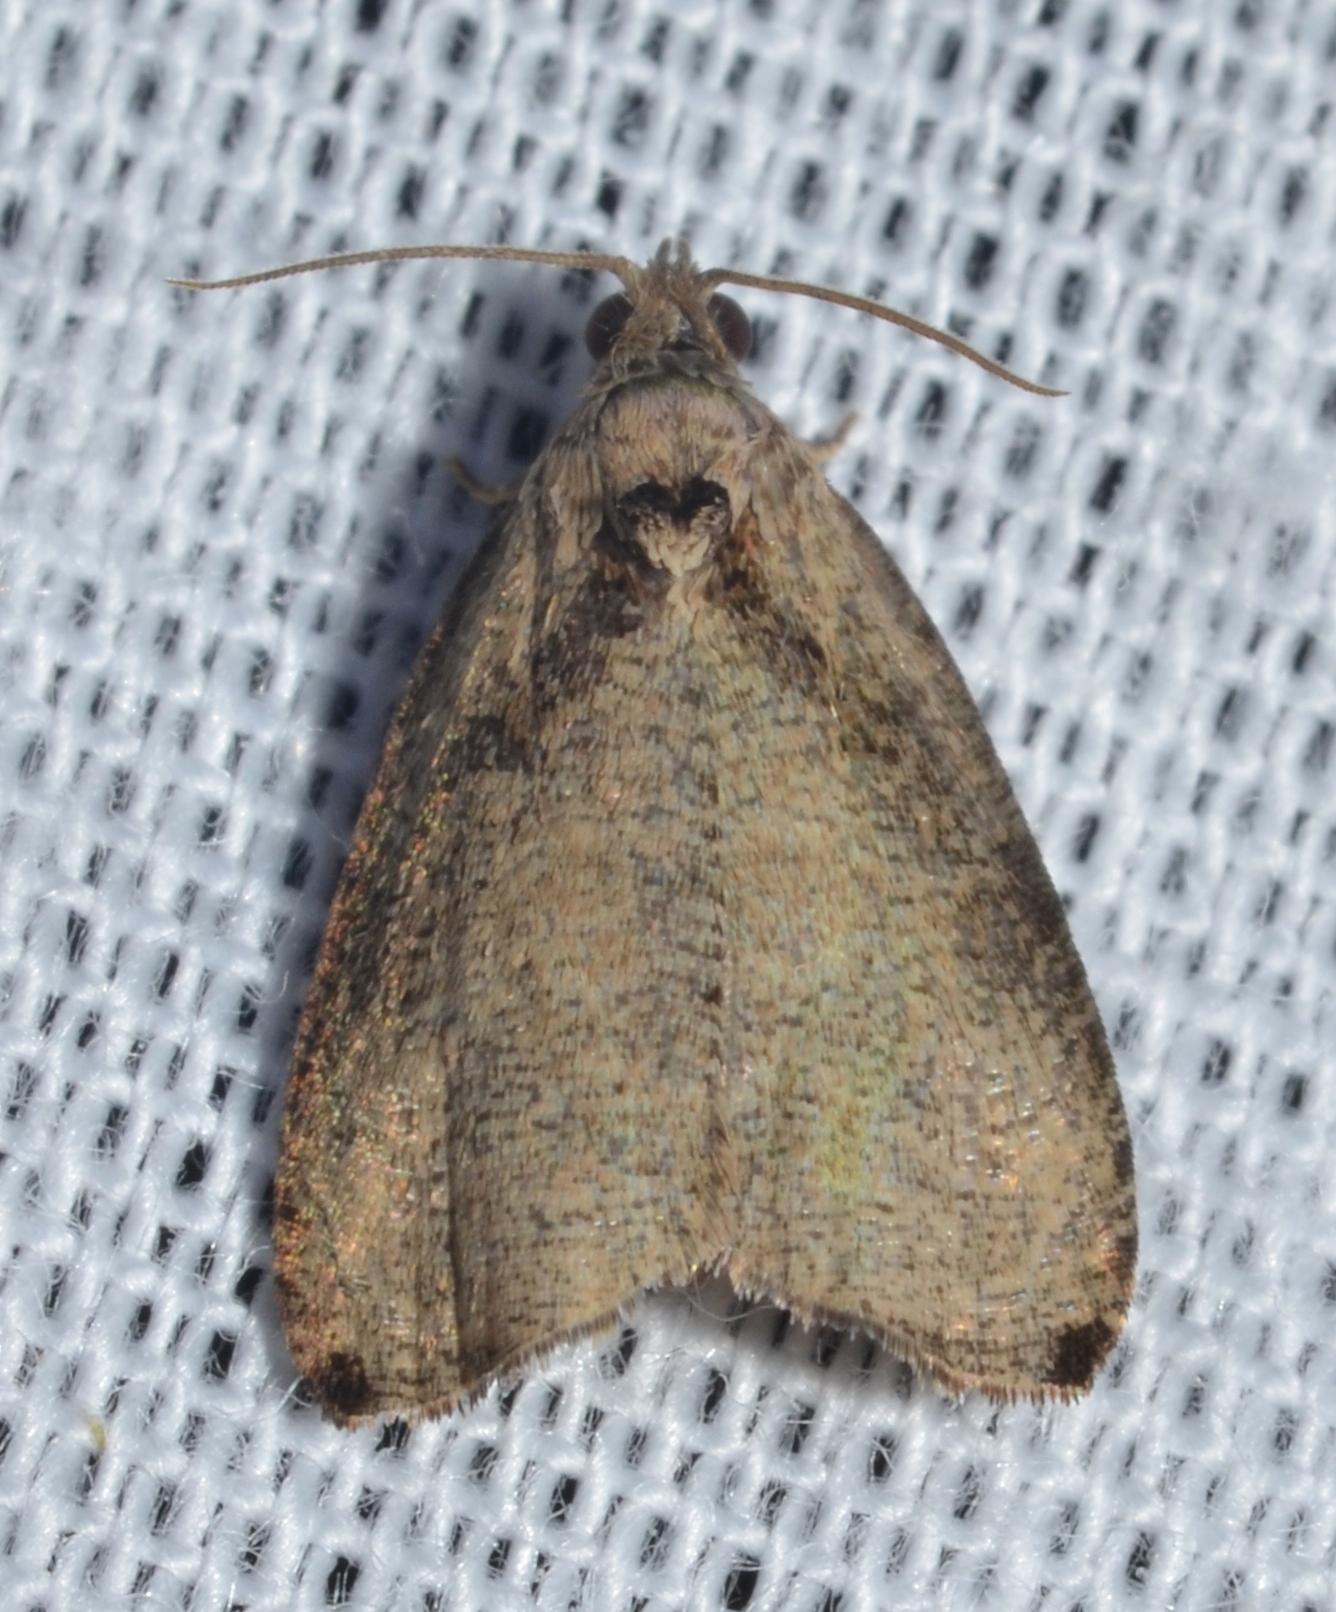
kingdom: Animalia
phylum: Arthropoda
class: Insecta
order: Lepidoptera
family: Tortricidae
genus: Olethreutes
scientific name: Olethreutes exoletum
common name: Wretched olethreutes moth
